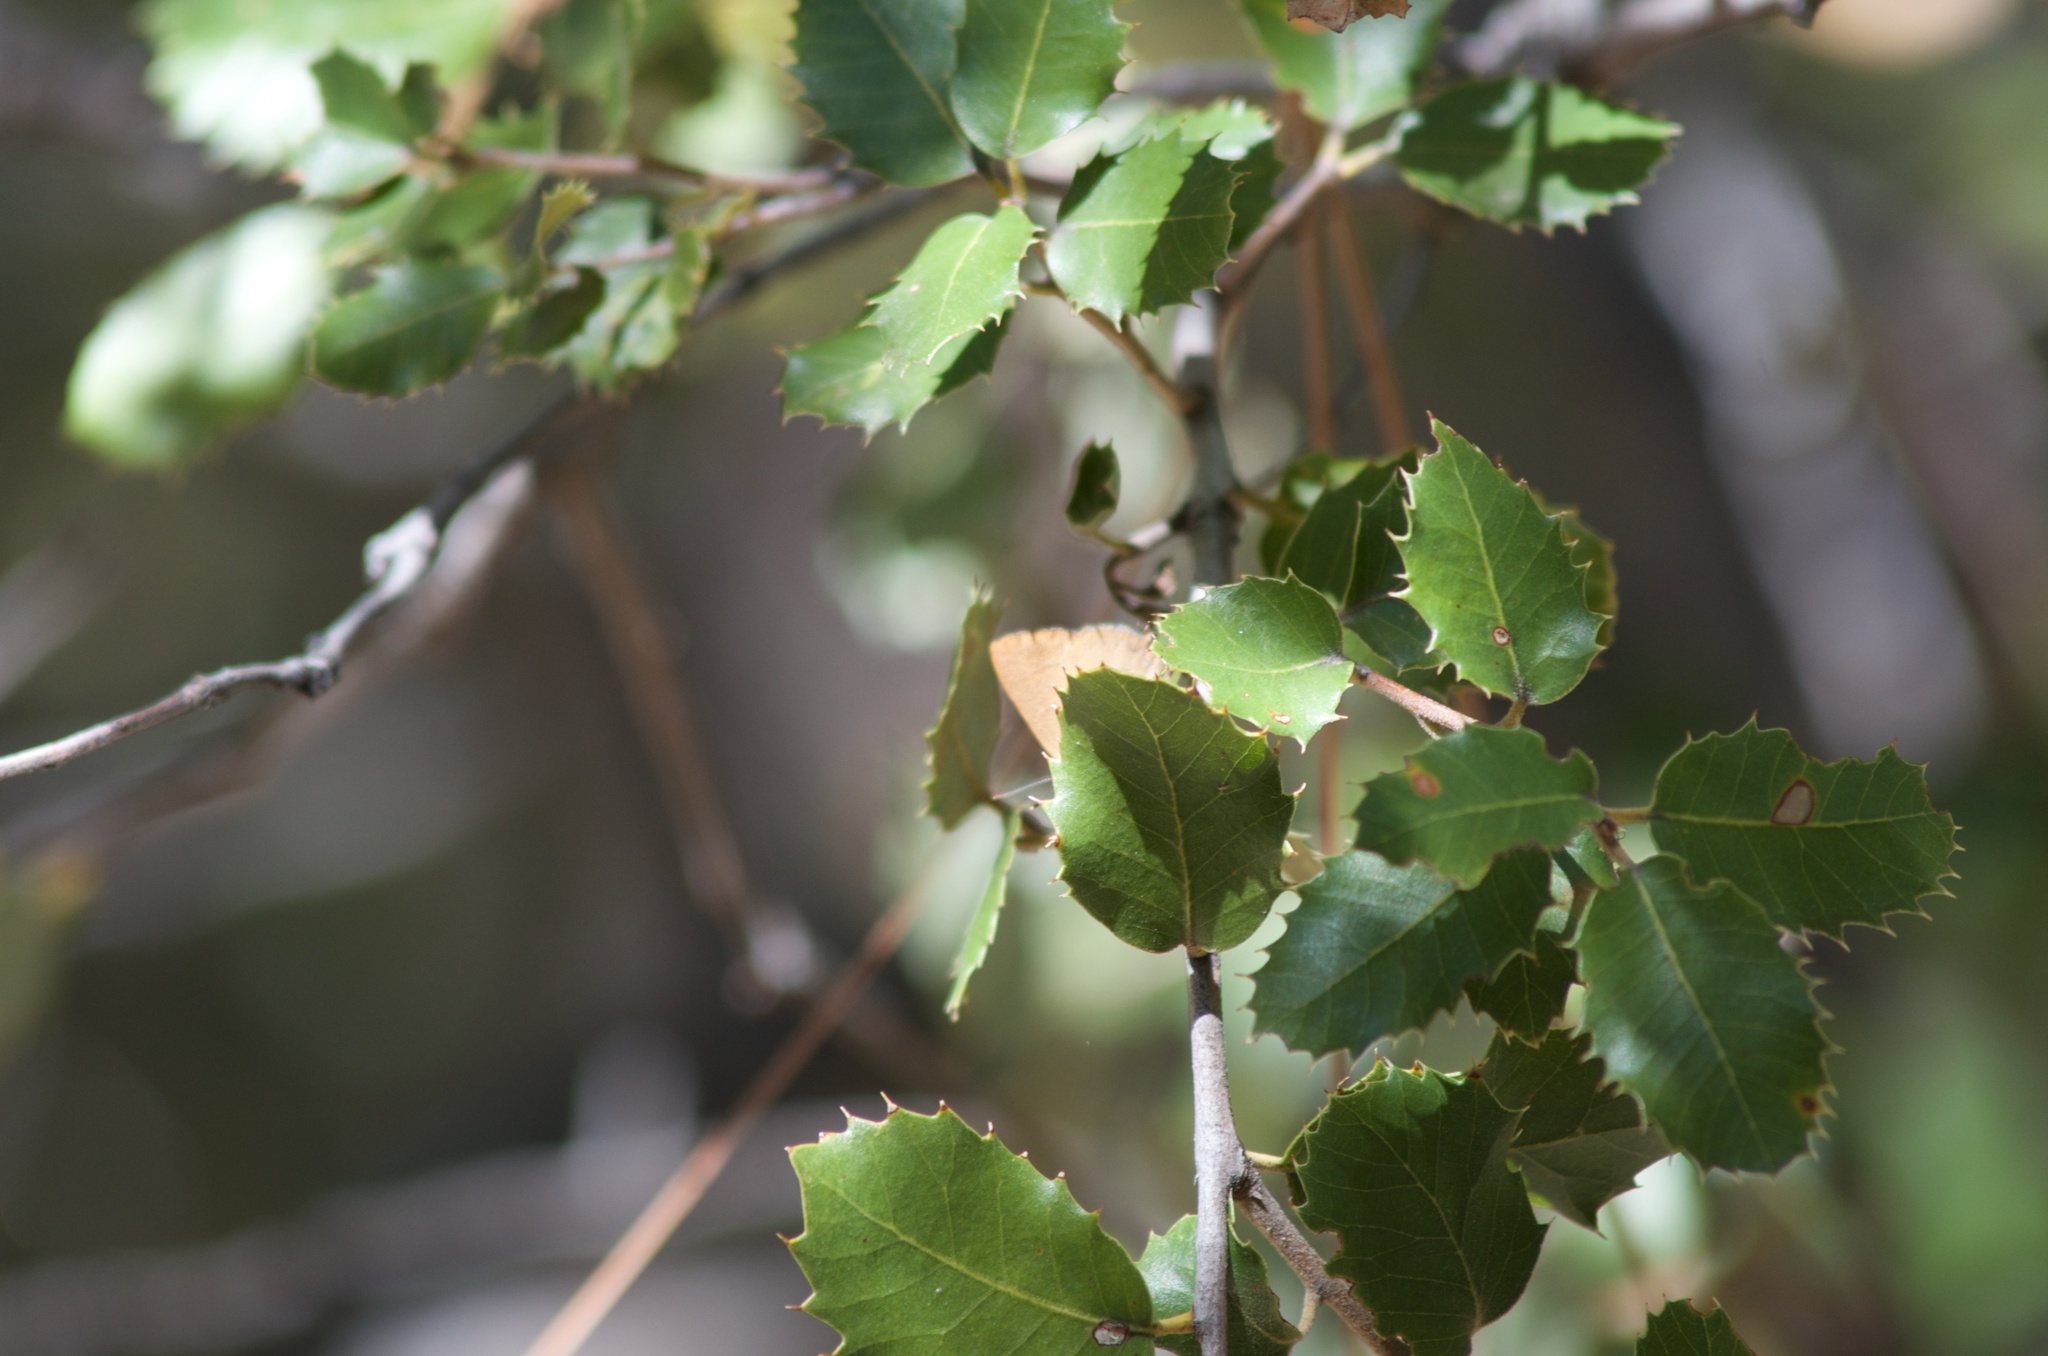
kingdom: Animalia
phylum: Arthropoda
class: Insecta
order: Lepidoptera
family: Lycaenidae
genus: Habrodais
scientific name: Habrodais grunus
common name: Golden hairstreak
